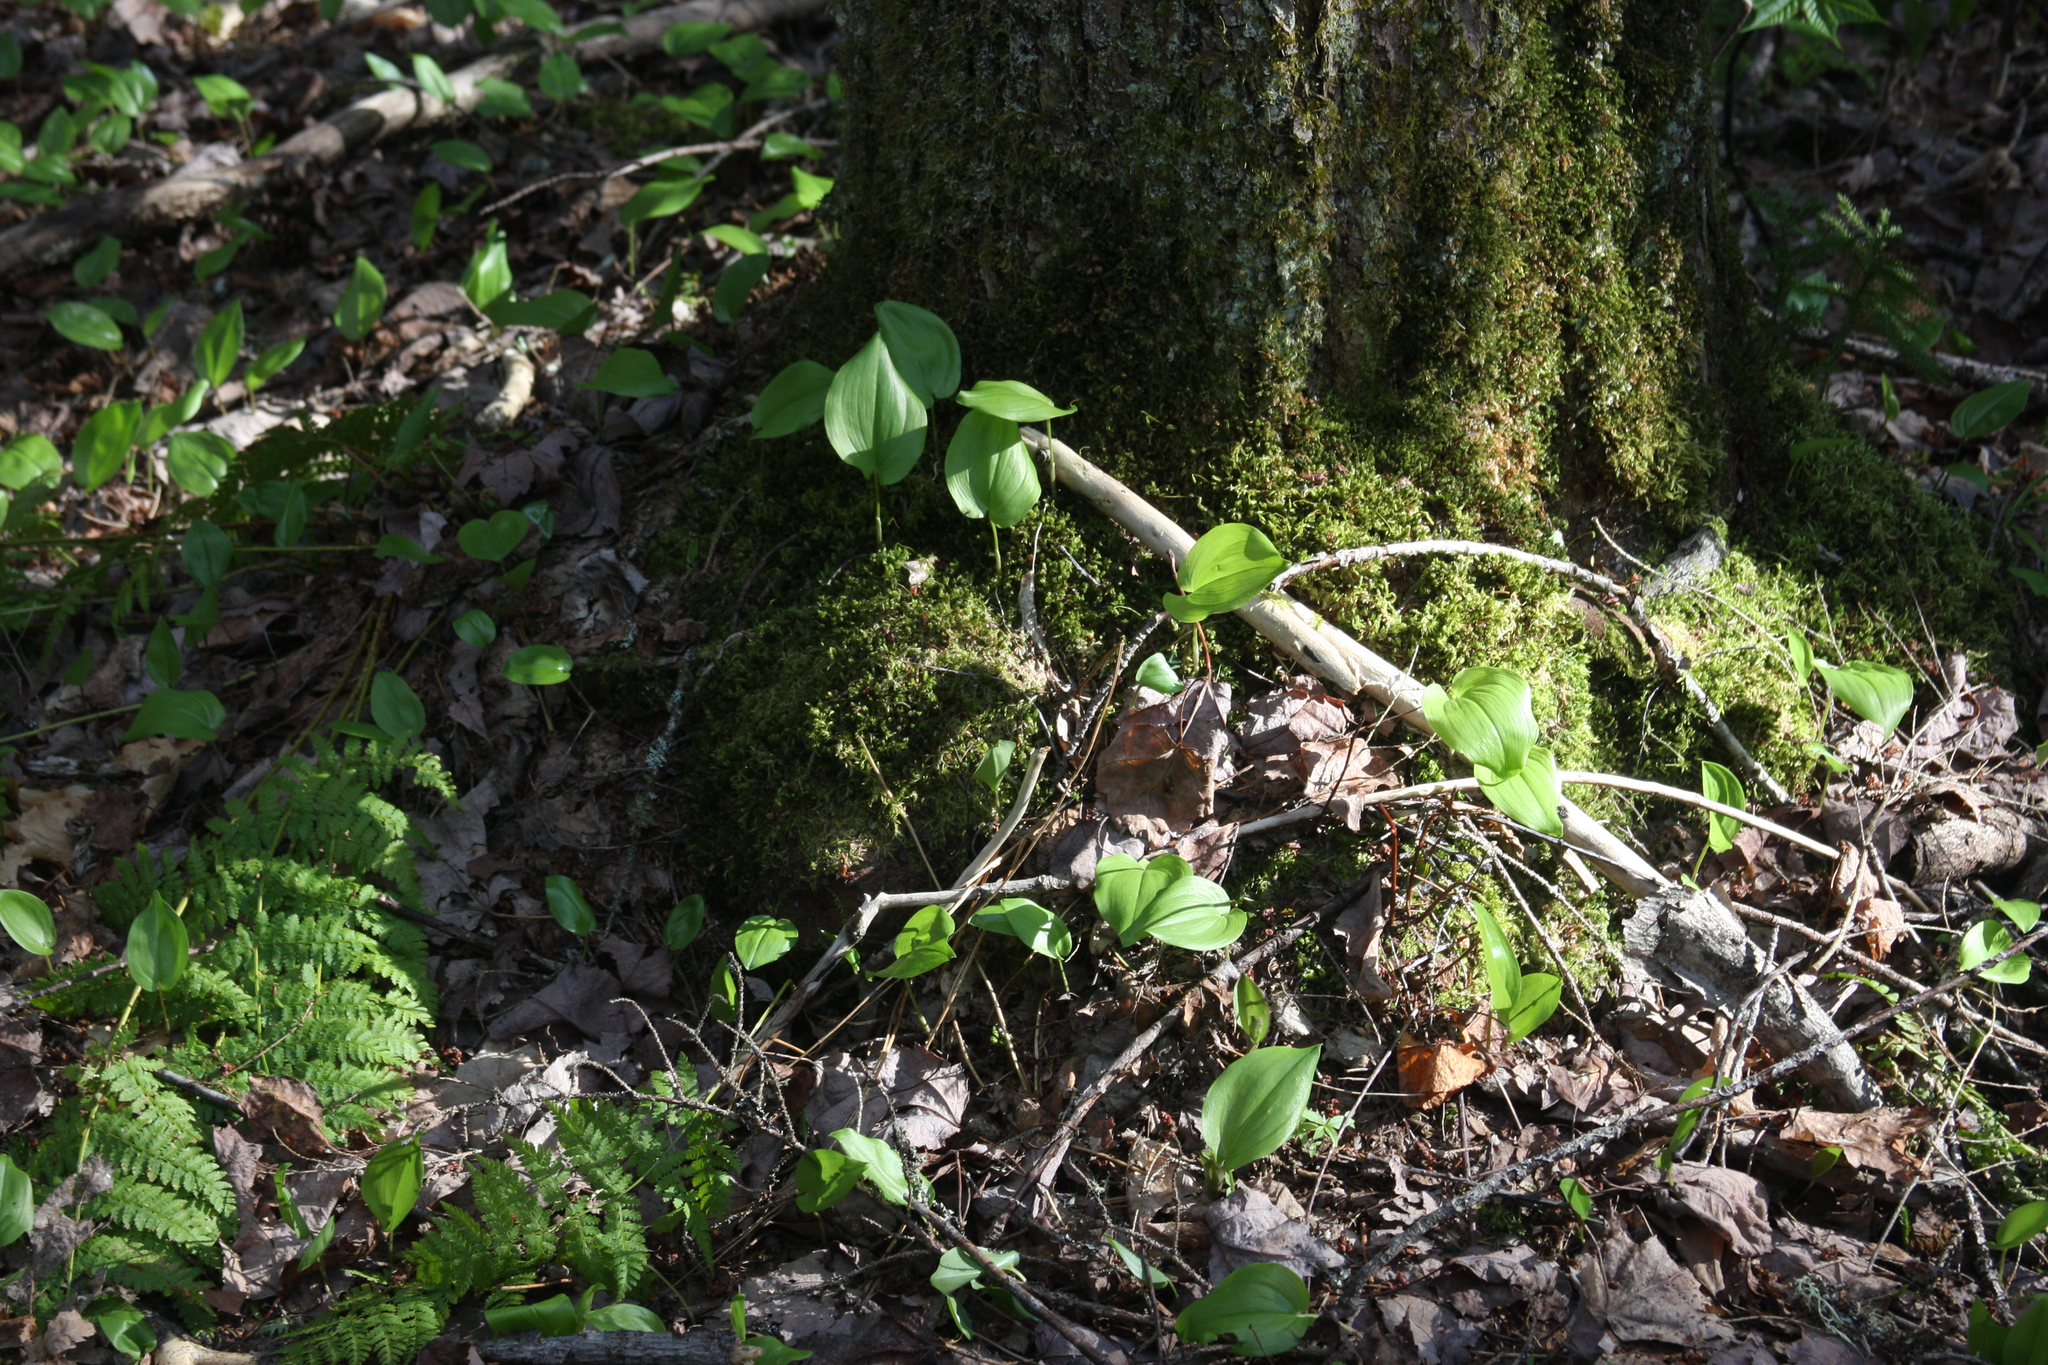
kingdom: Plantae
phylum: Tracheophyta
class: Liliopsida
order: Asparagales
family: Asparagaceae
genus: Maianthemum
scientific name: Maianthemum canadense
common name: False lily-of-the-valley
